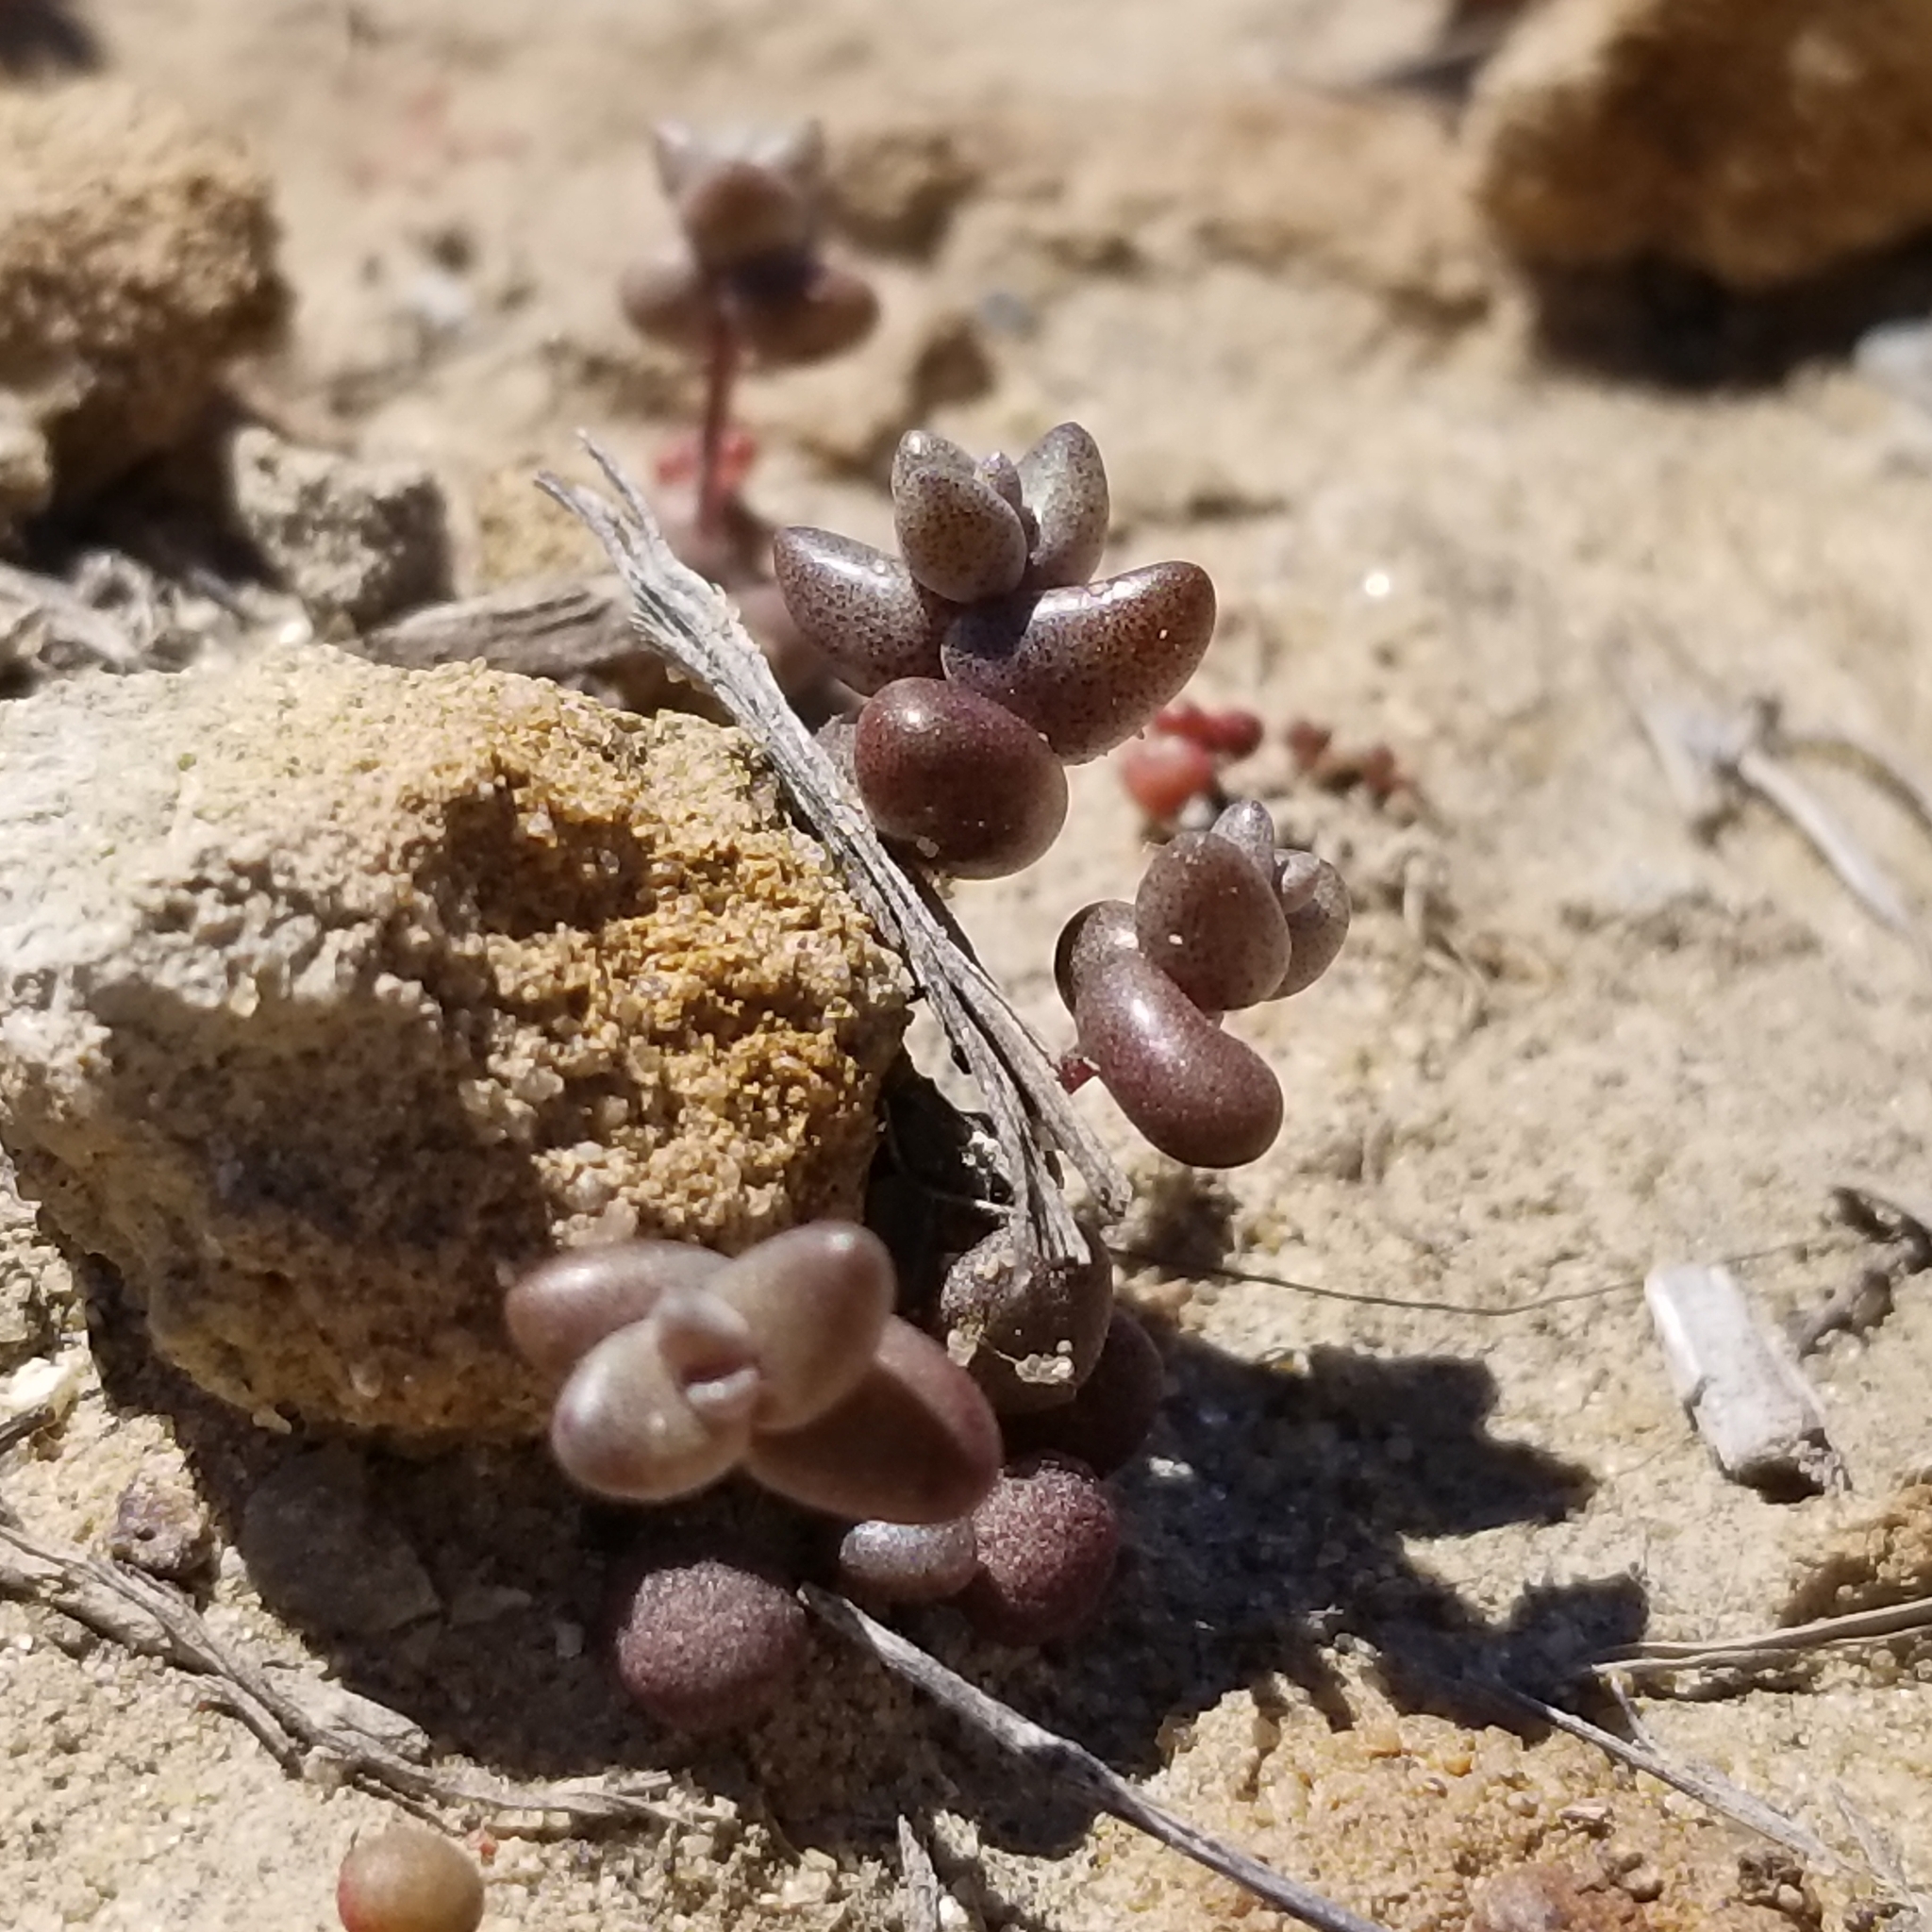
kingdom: Plantae
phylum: Tracheophyta
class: Magnoliopsida
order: Saxifragales
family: Crassulaceae
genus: Dudleya
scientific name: Dudleya blochmaniae
